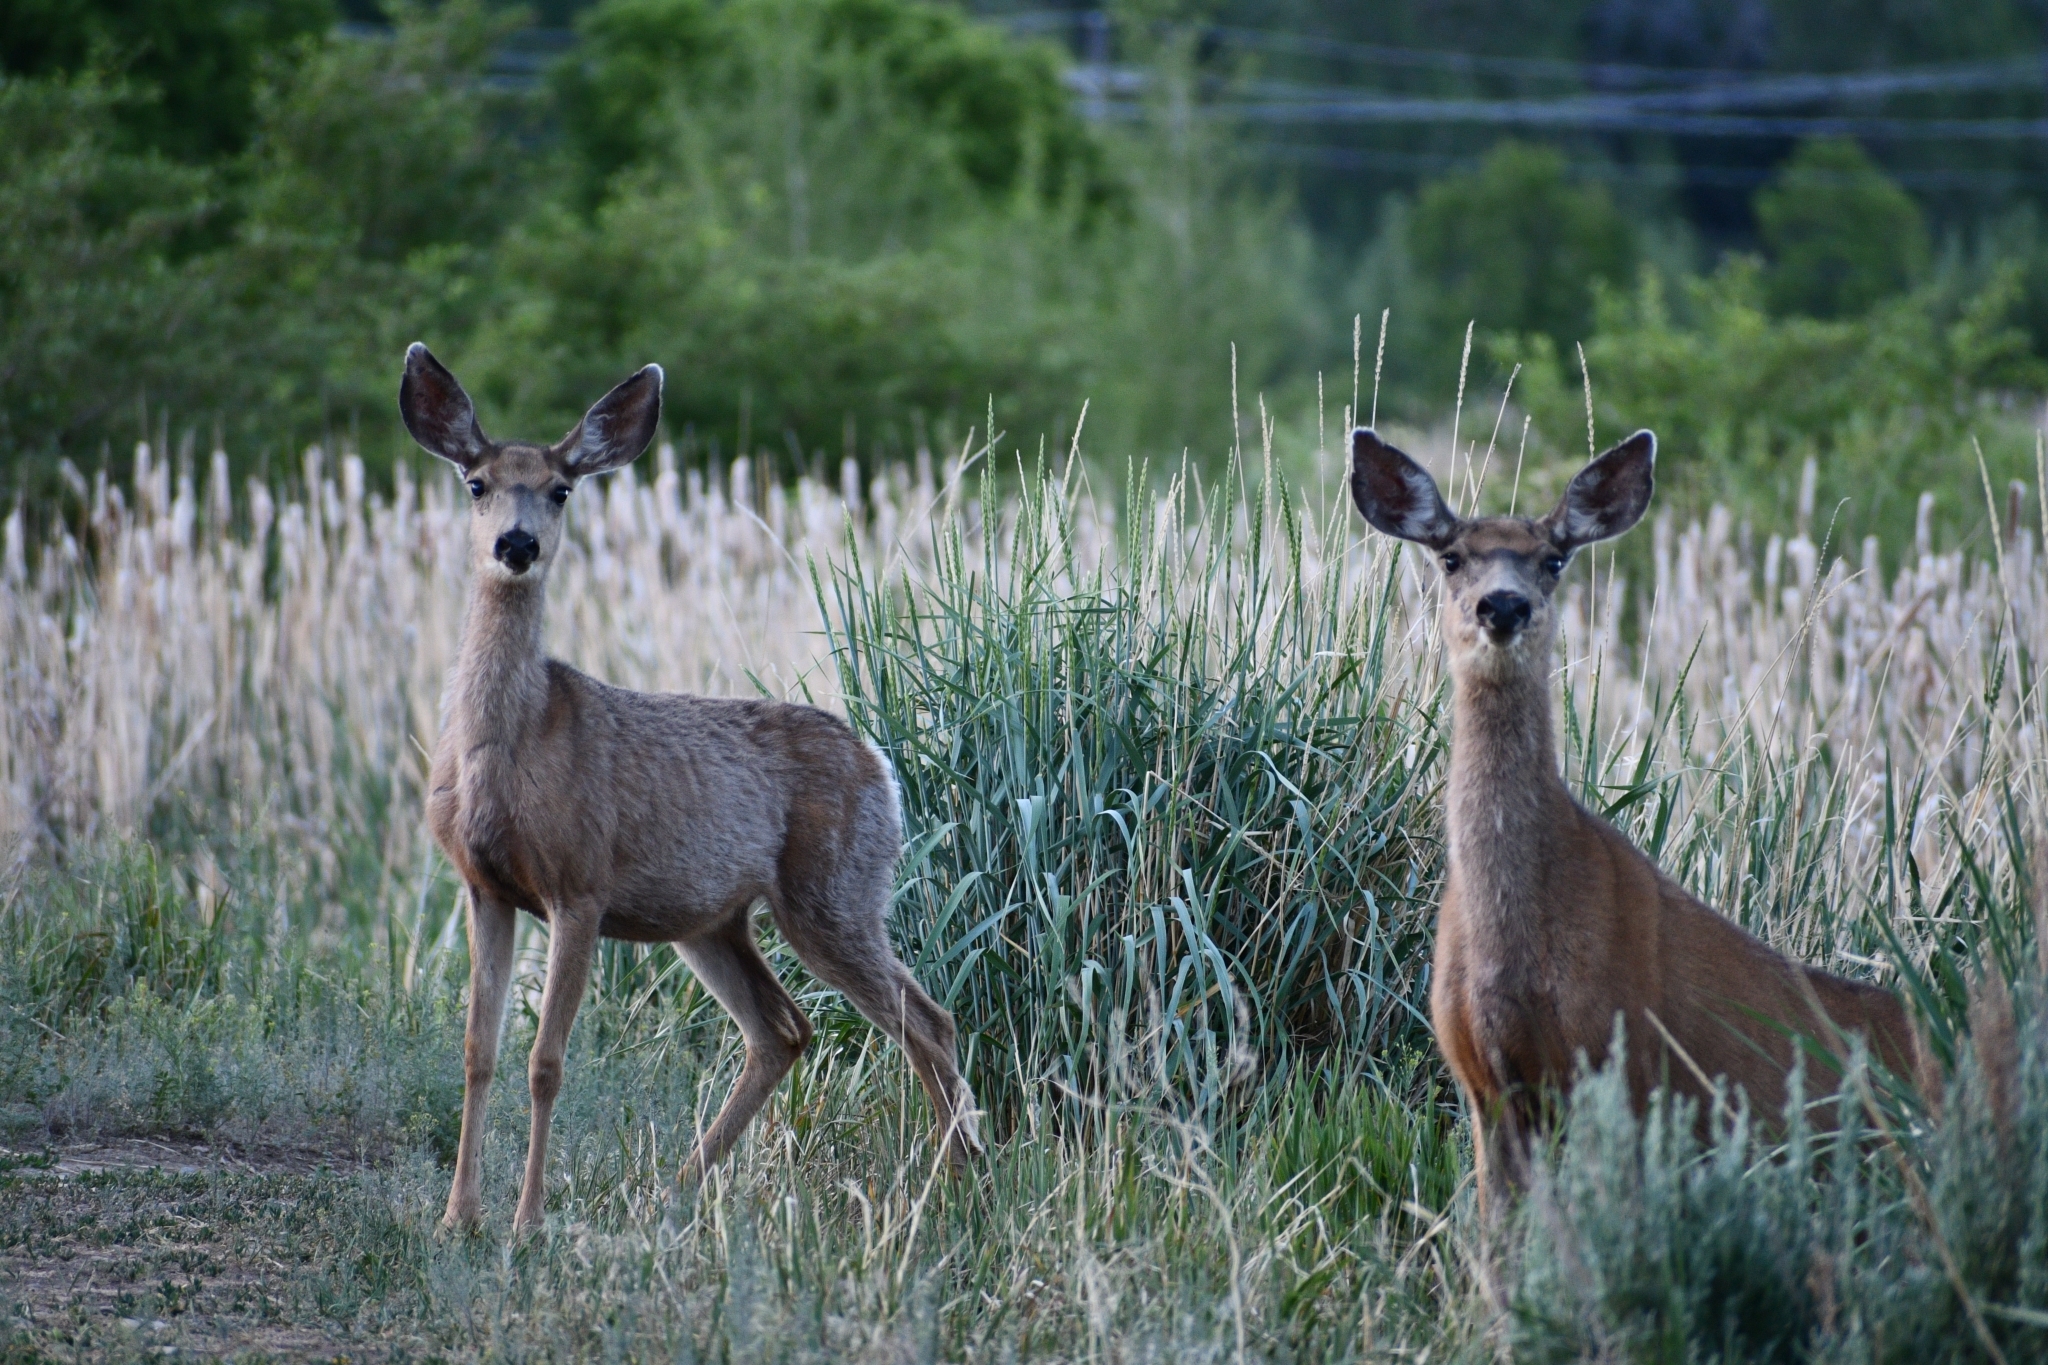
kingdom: Animalia
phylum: Chordata
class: Mammalia
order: Artiodactyla
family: Cervidae
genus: Odocoileus
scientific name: Odocoileus hemionus
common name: Mule deer
